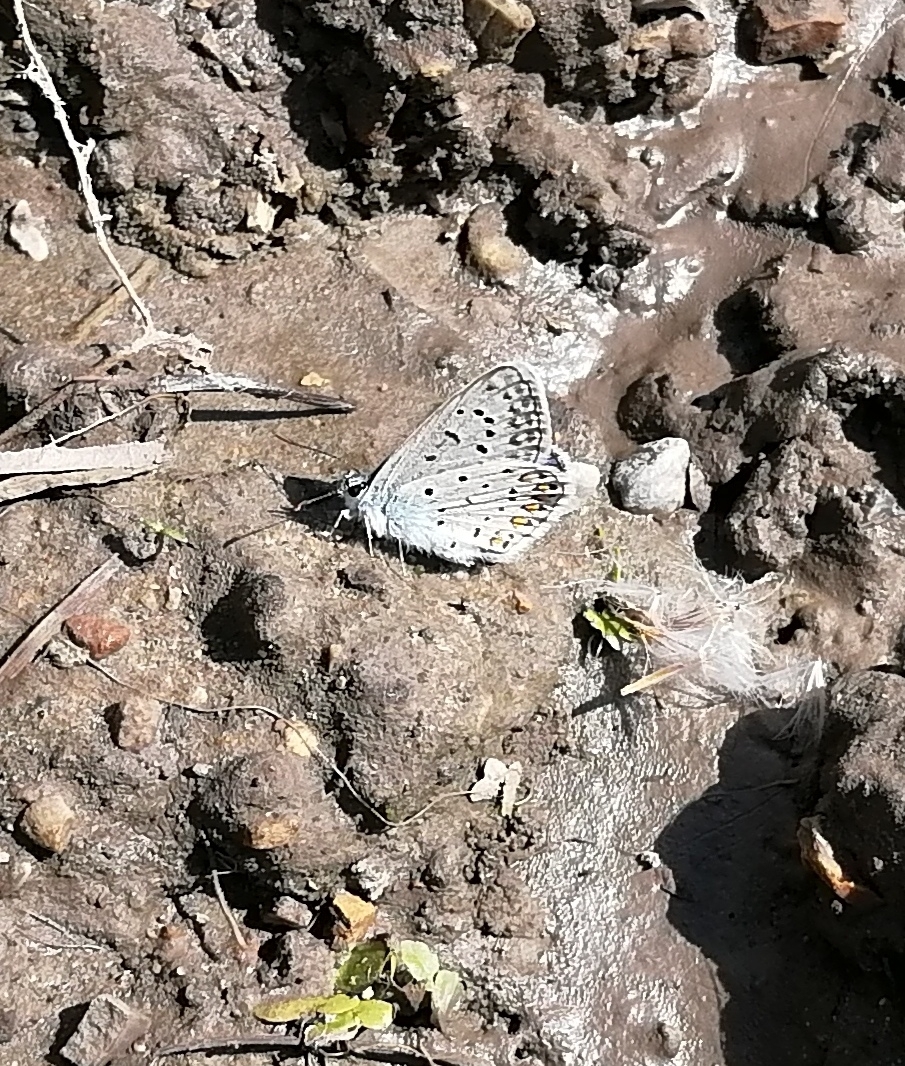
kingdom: Animalia
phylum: Arthropoda
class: Insecta
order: Lepidoptera
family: Lycaenidae
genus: Polyommatus
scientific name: Polyommatus icarus
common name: Common blue
